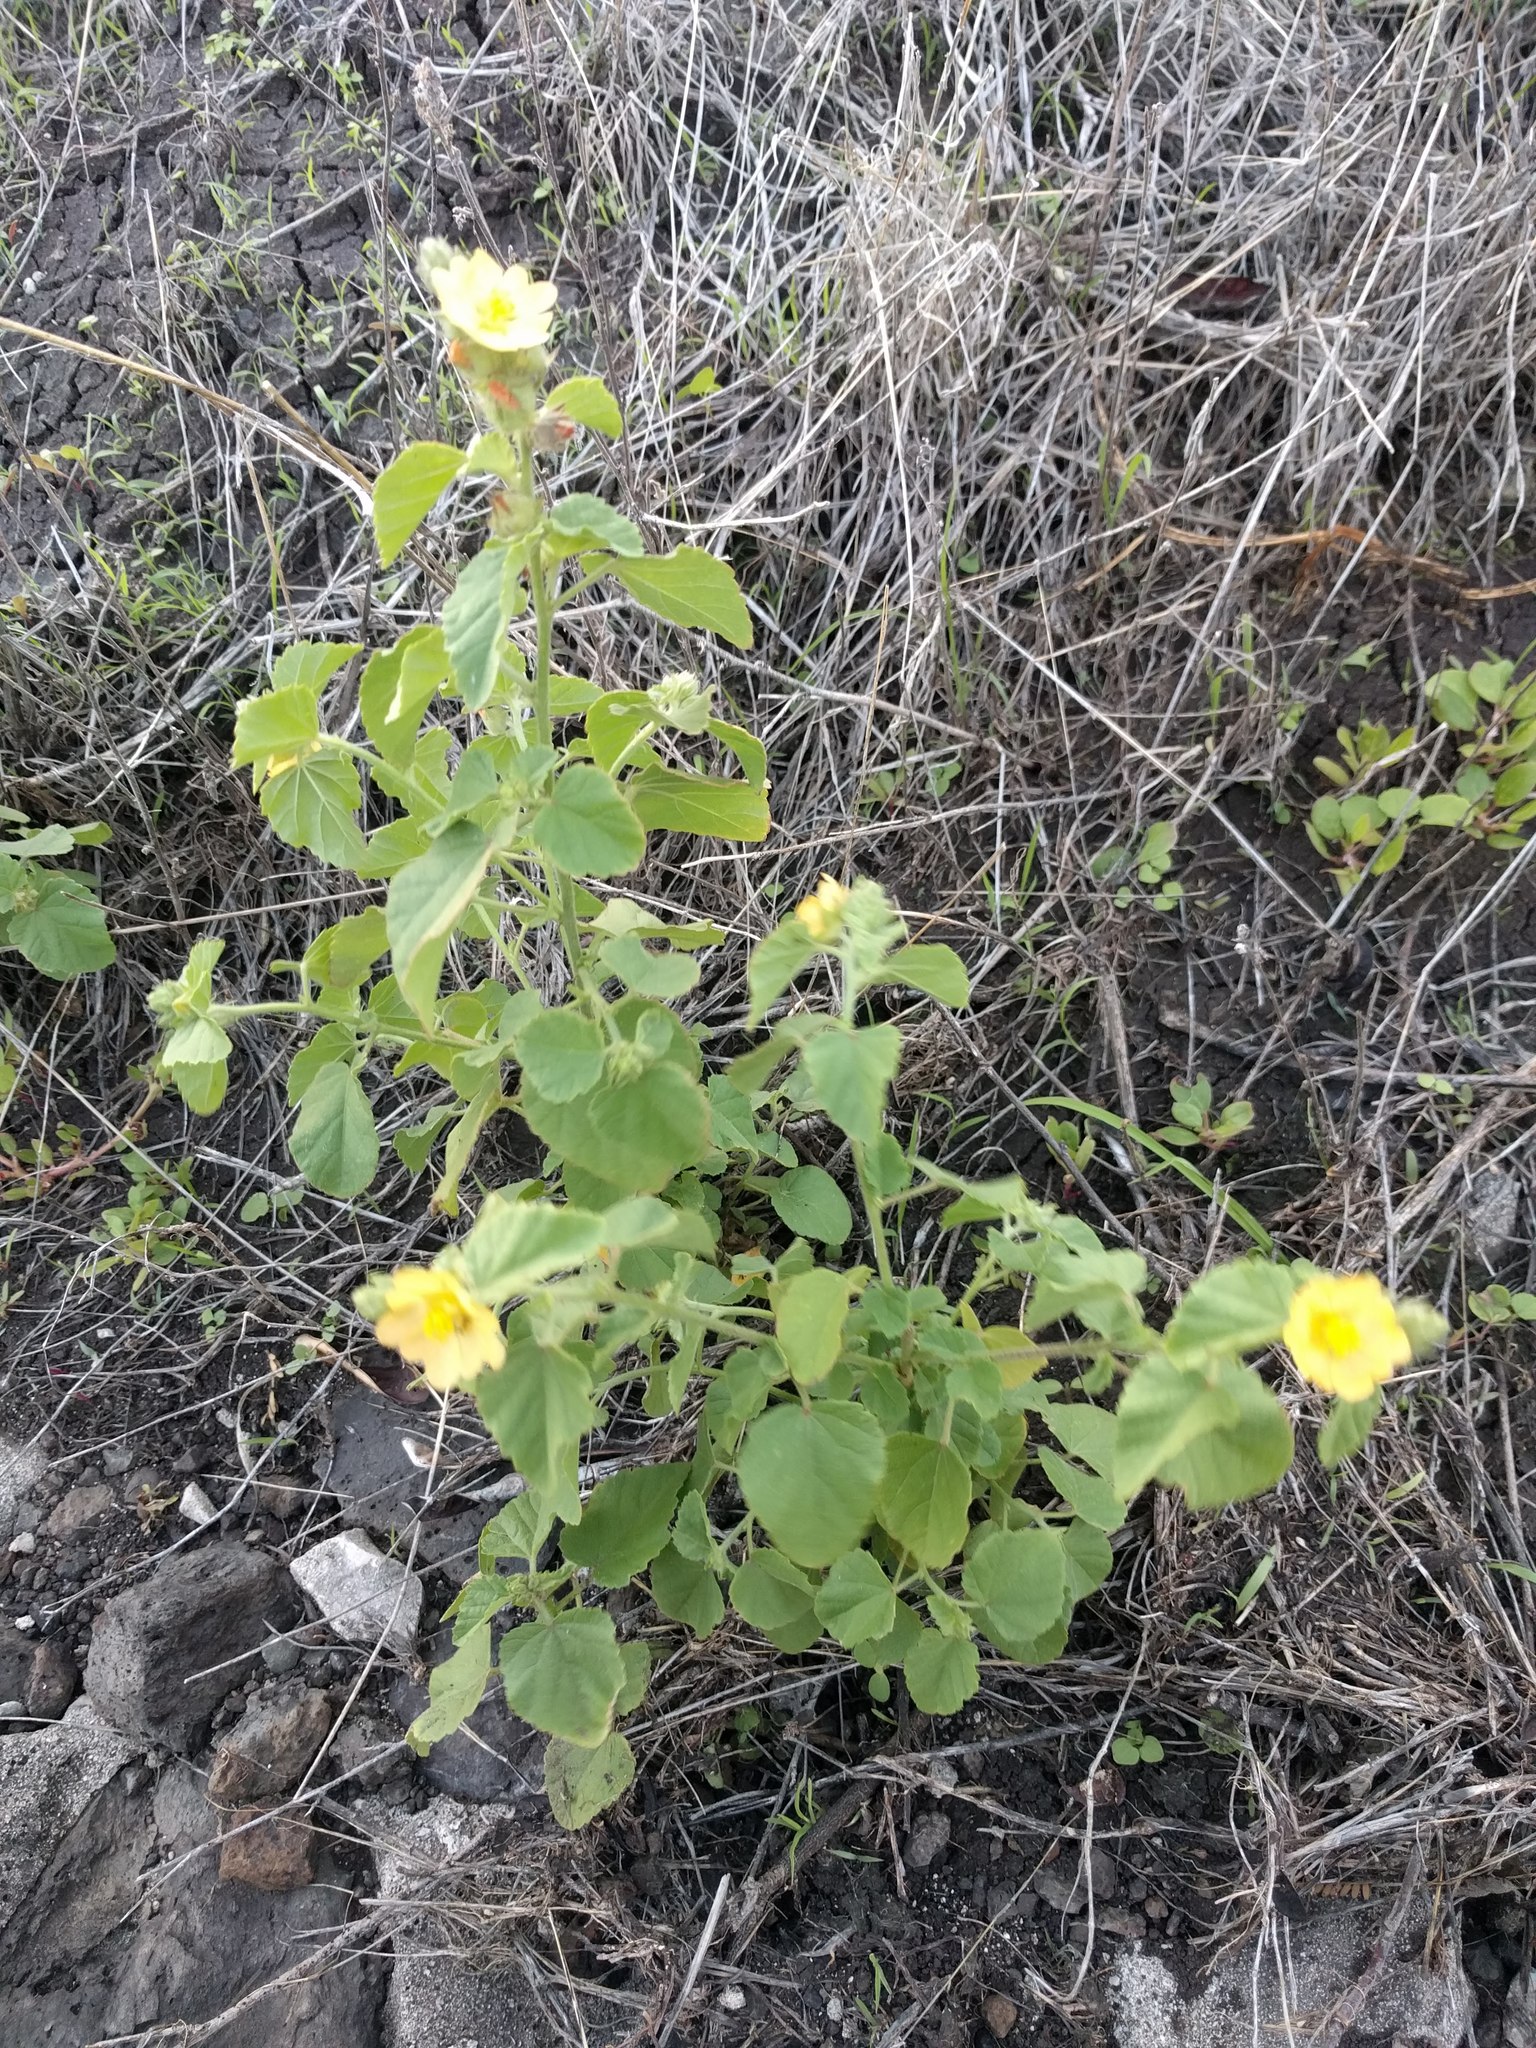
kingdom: Plantae
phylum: Tracheophyta
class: Magnoliopsida
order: Malvales
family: Malvaceae
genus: Malvastrum
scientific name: Malvastrum americanum
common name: Spiked malvastrum
